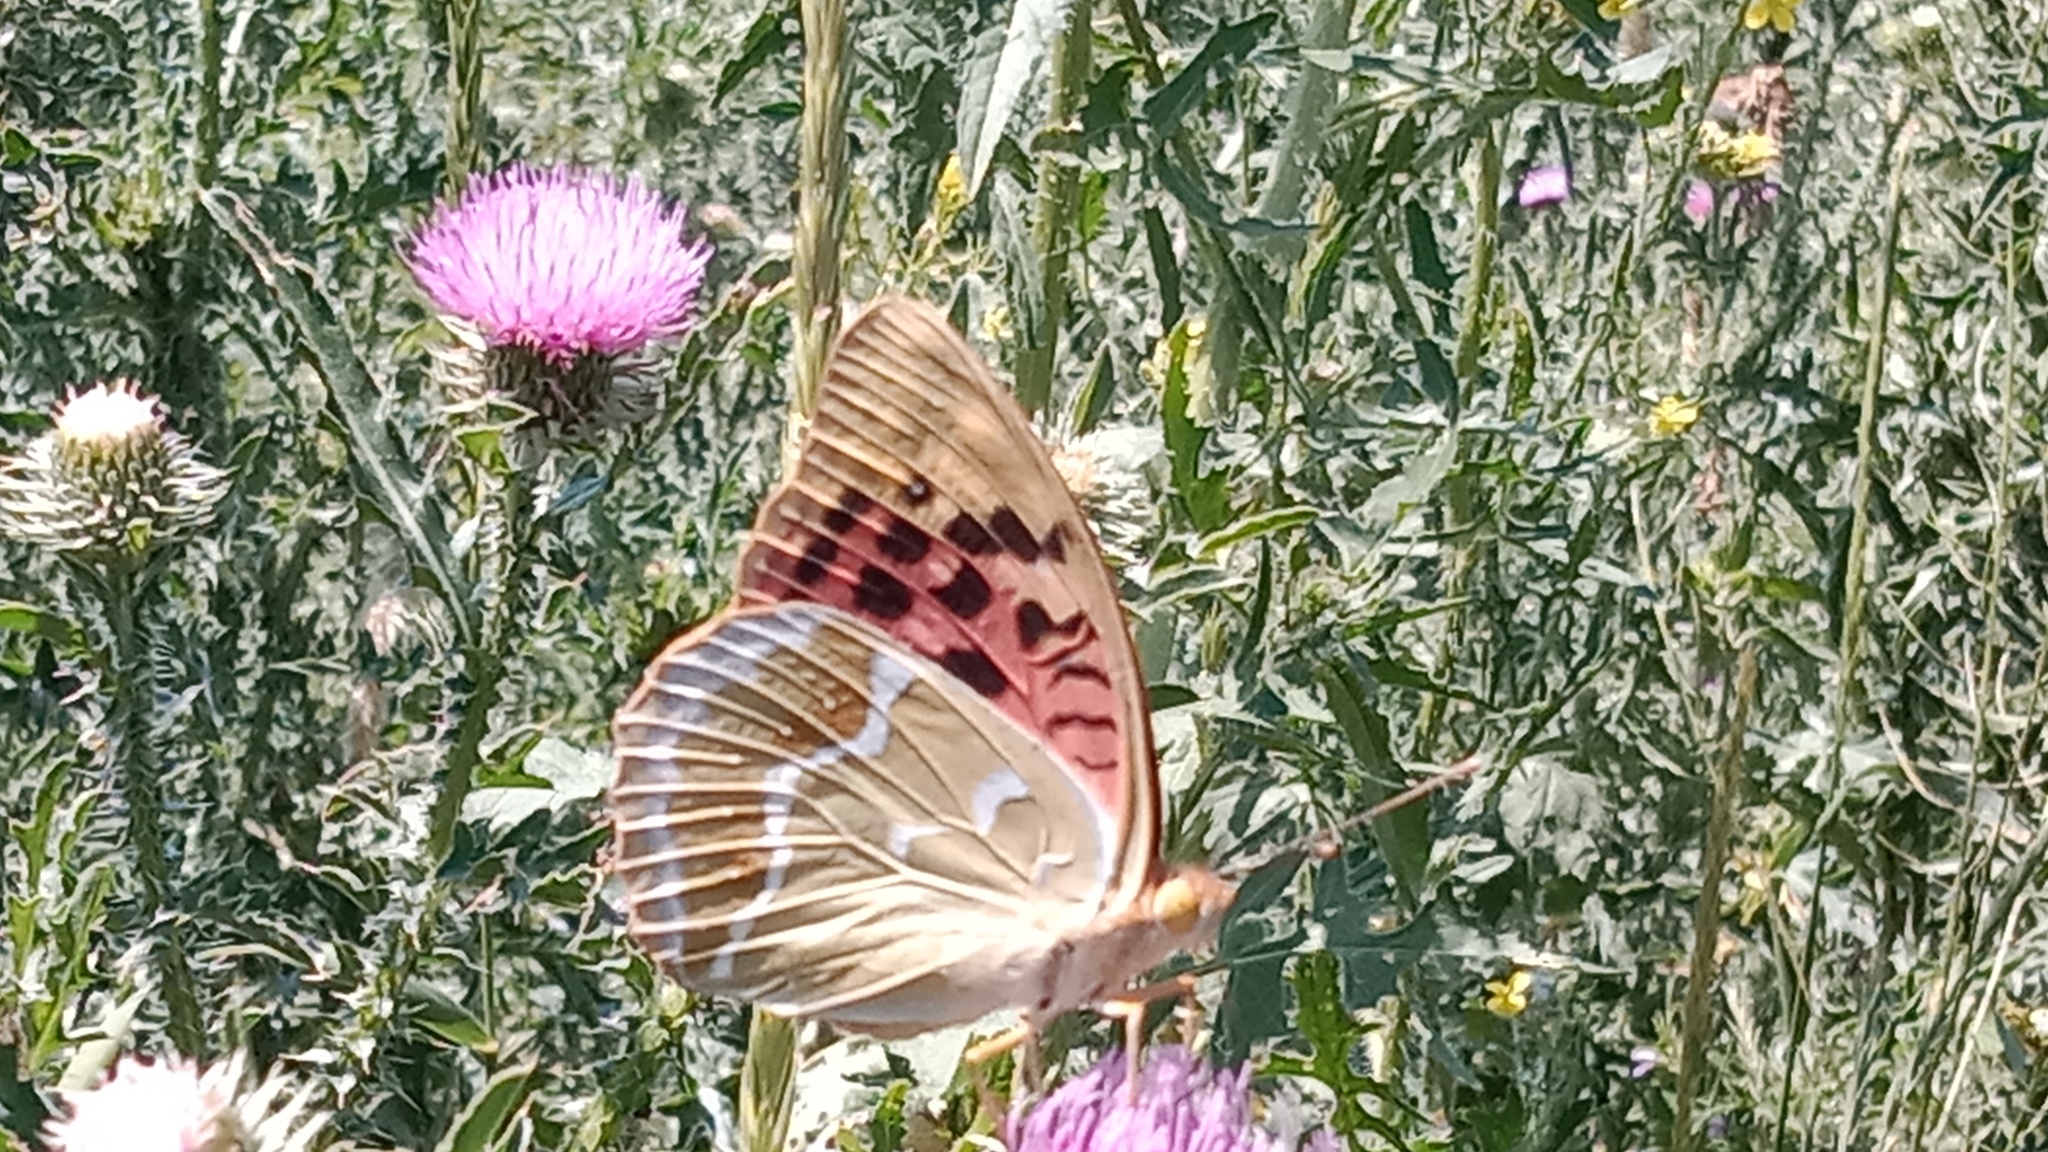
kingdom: Animalia
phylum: Arthropoda
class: Insecta
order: Lepidoptera
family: Nymphalidae
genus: Damora
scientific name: Damora pandora
